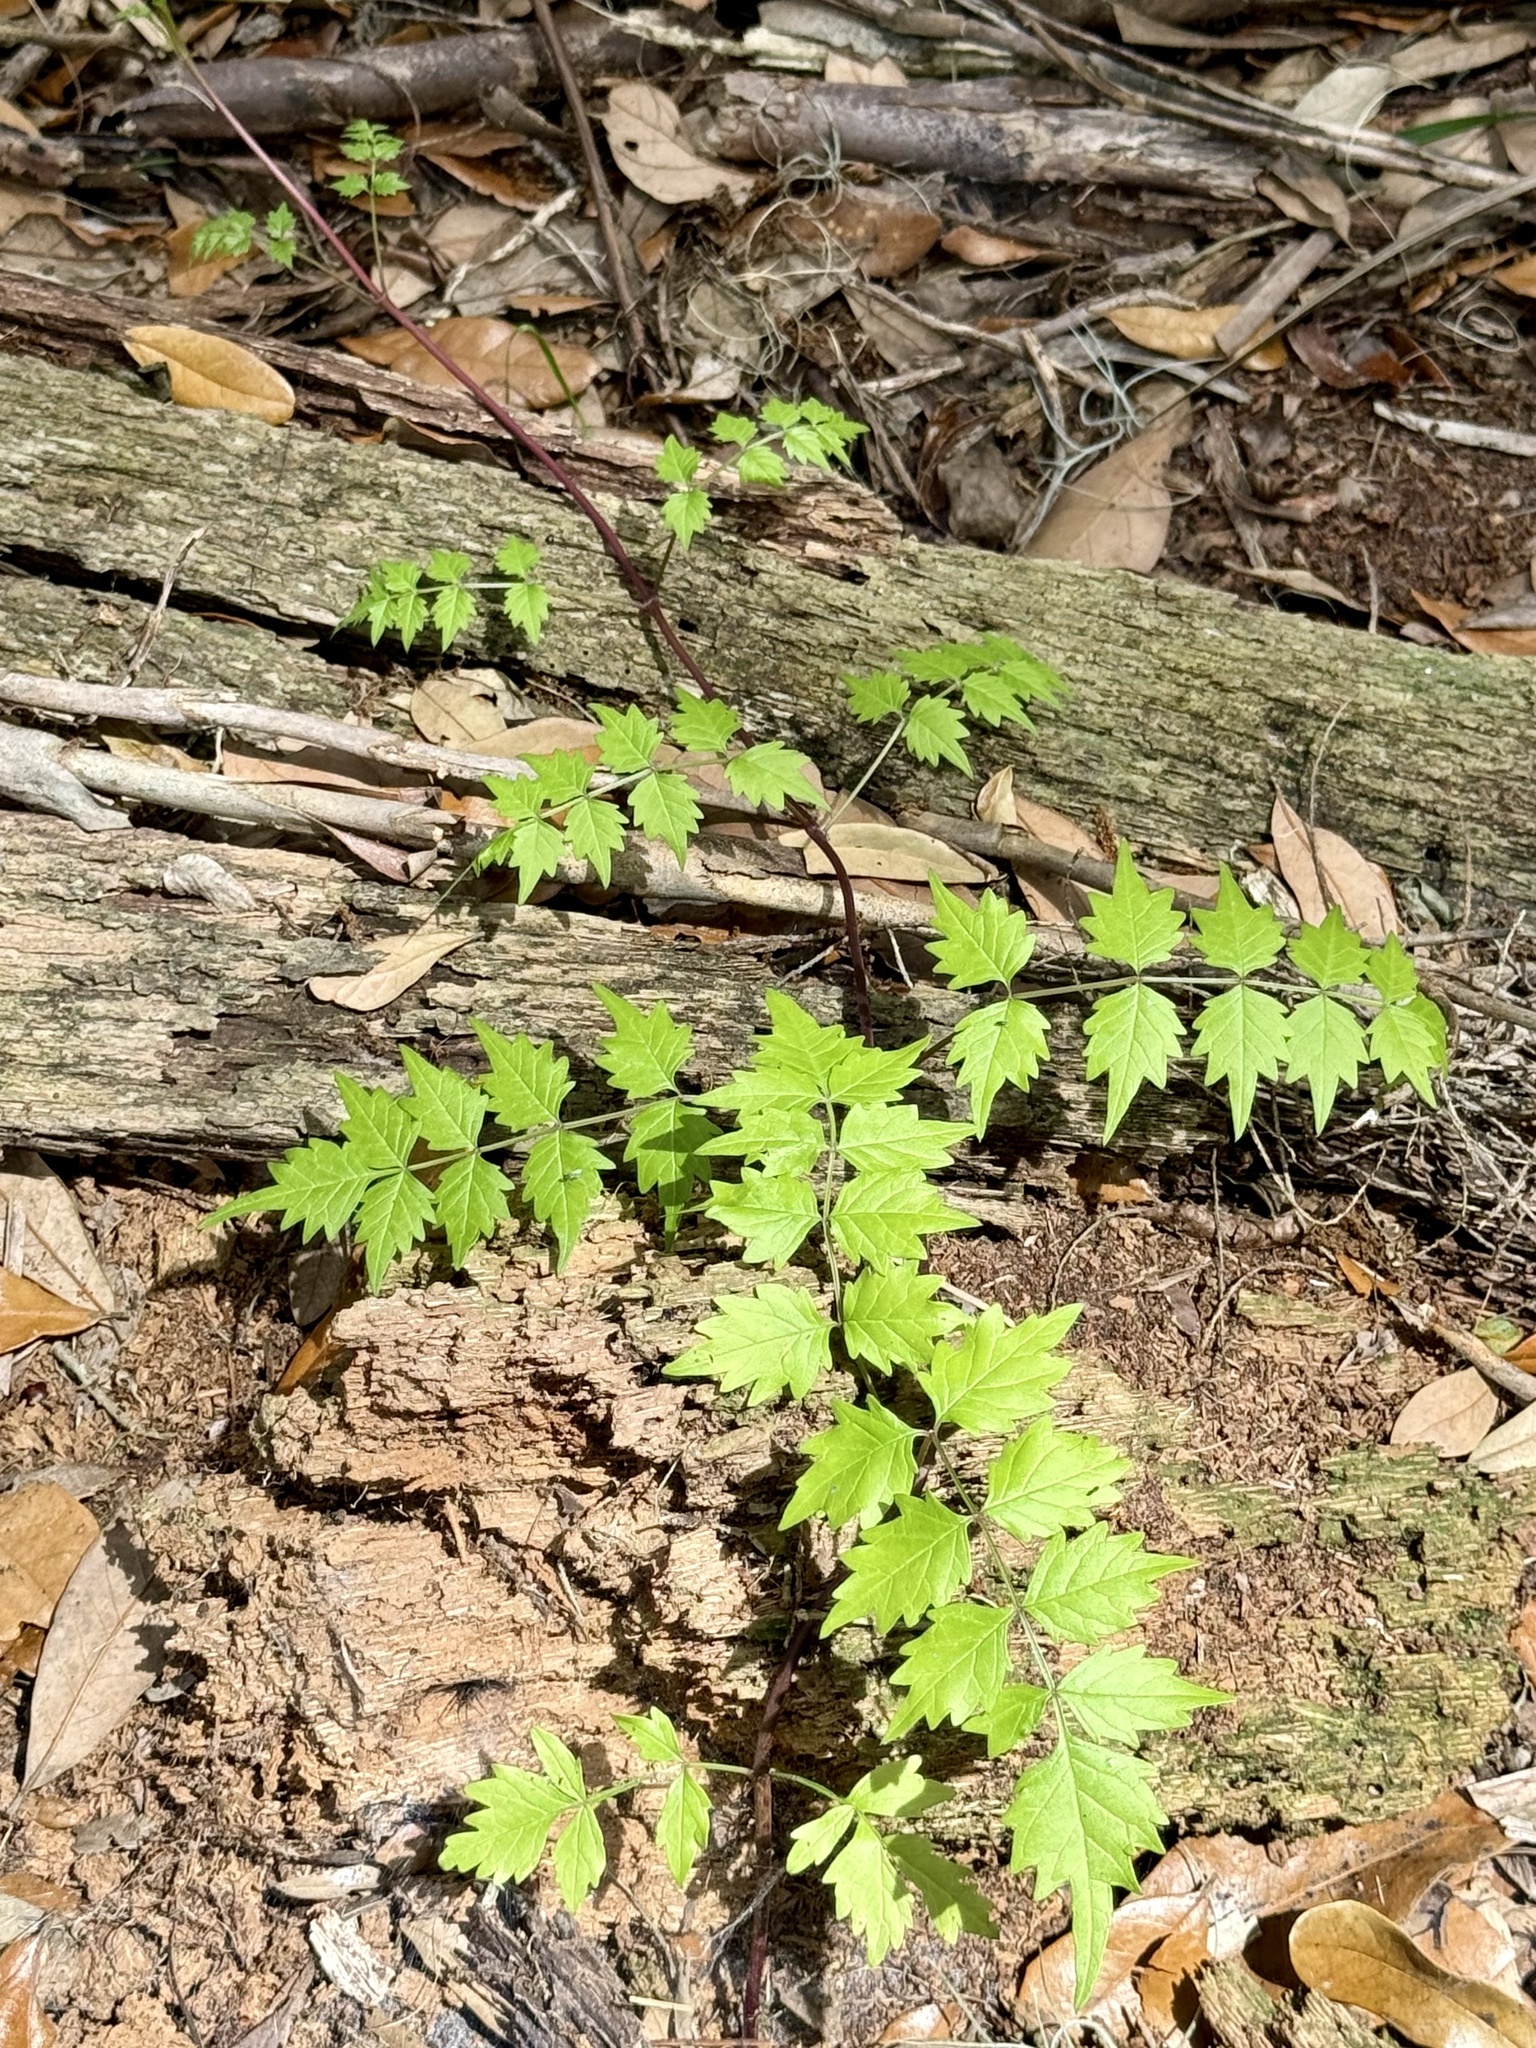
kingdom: Plantae
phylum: Tracheophyta
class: Magnoliopsida
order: Lamiales
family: Bignoniaceae
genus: Campsis
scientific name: Campsis radicans
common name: Trumpet-creeper
